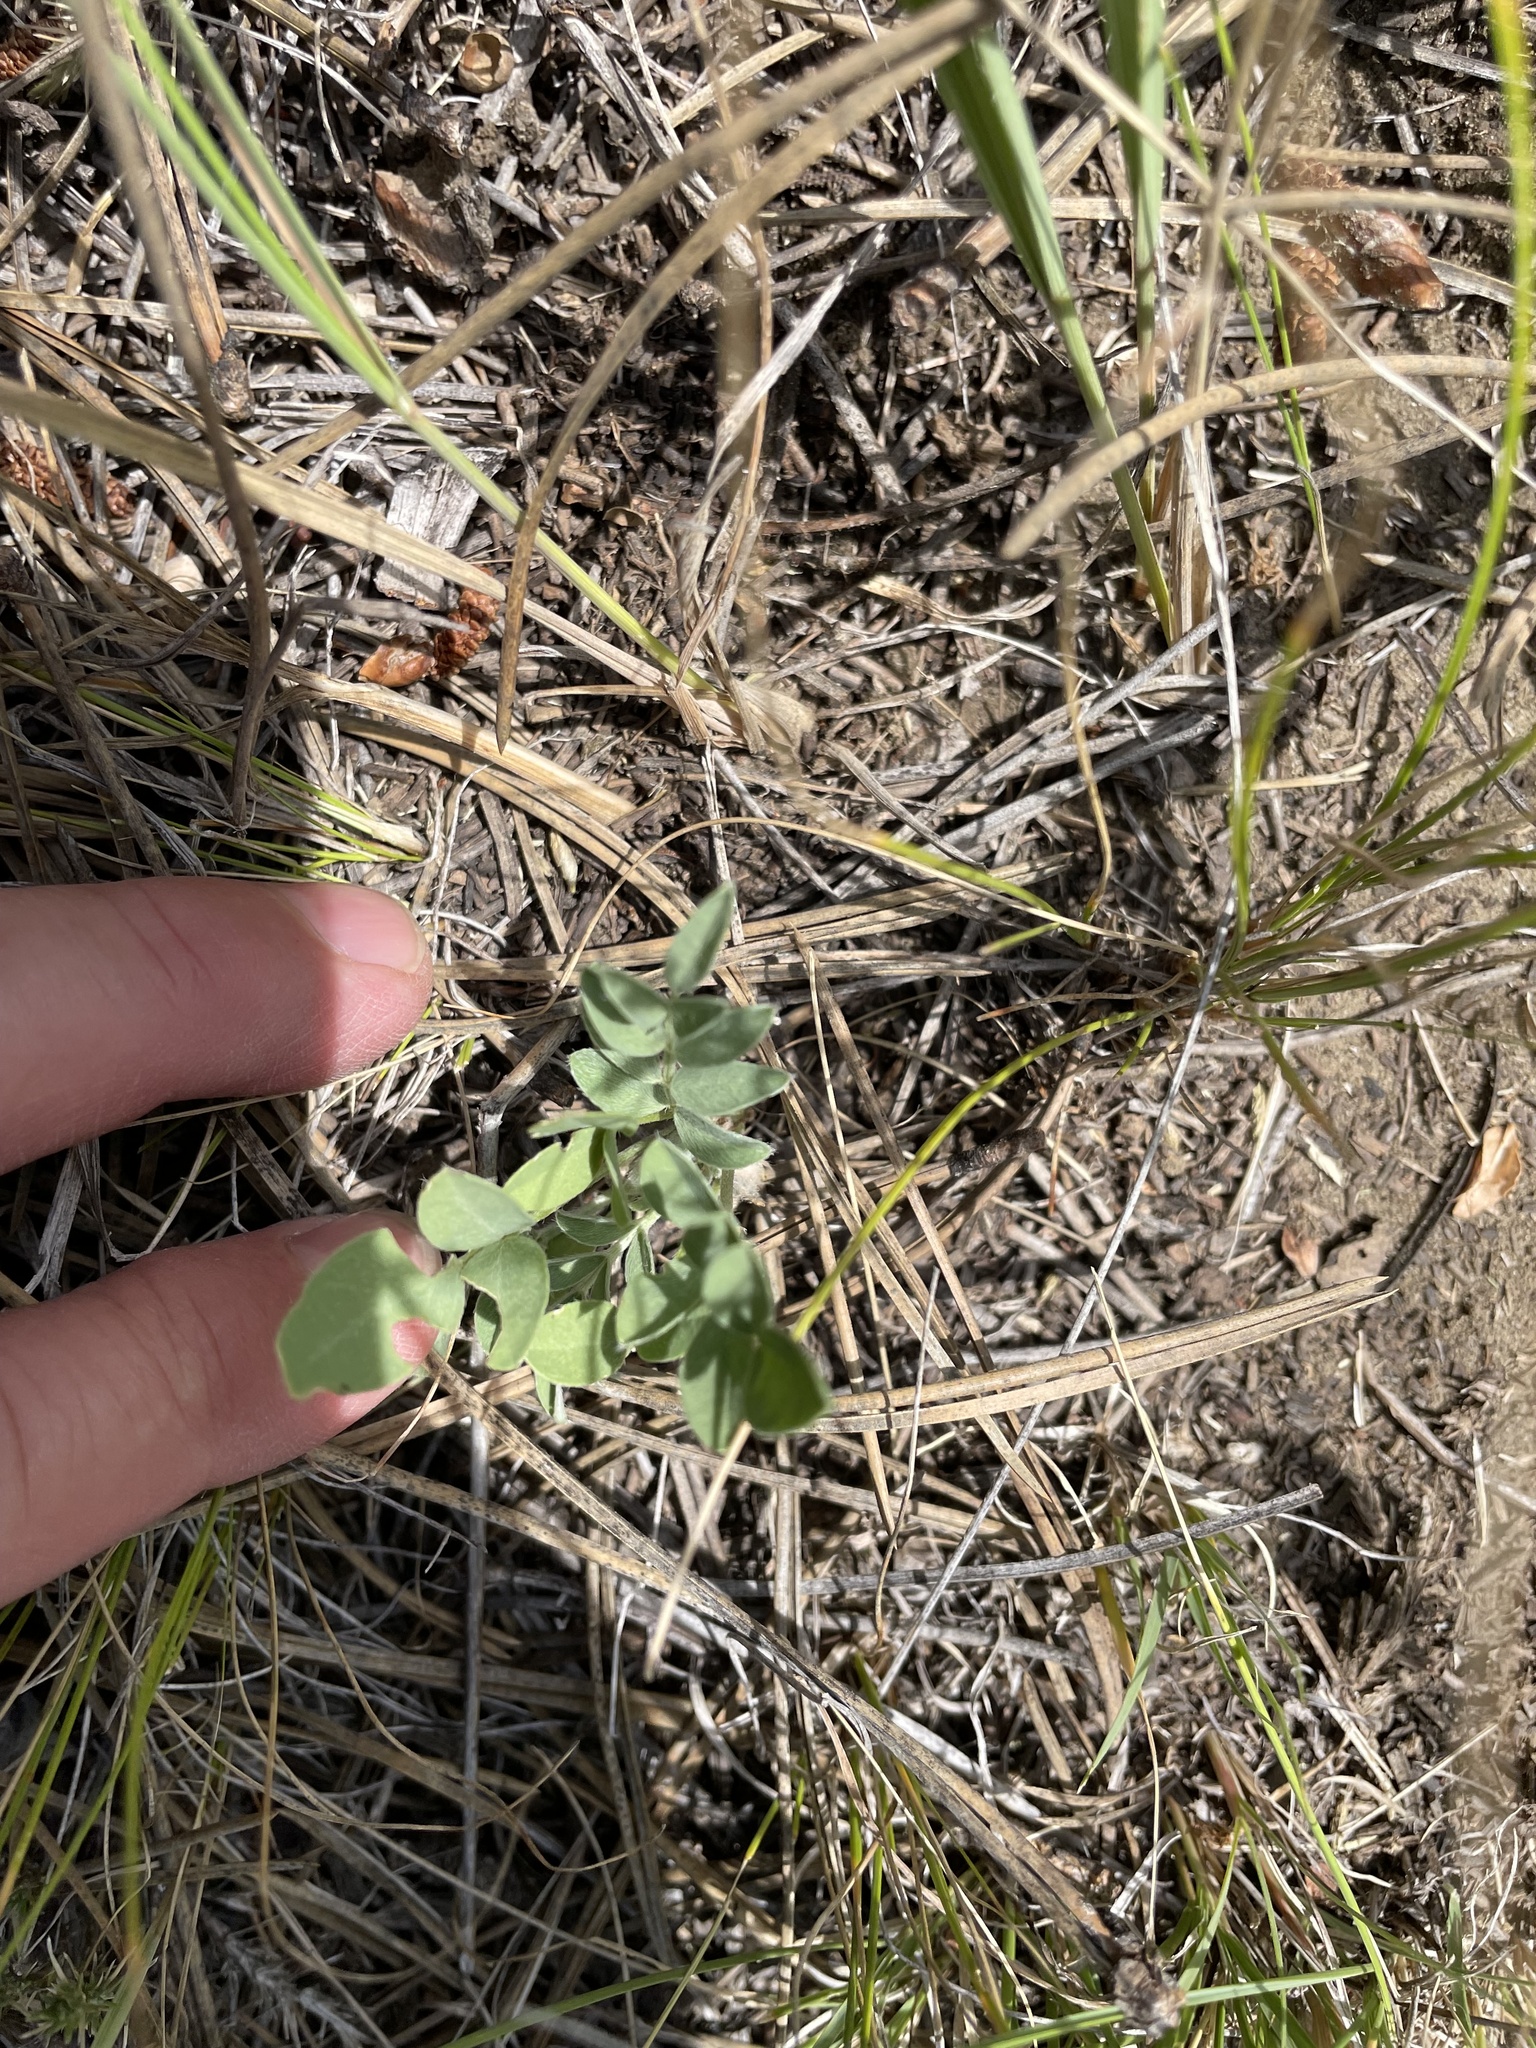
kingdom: Plantae
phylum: Tracheophyta
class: Magnoliopsida
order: Fabales
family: Fabaceae
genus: Astragalus
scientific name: Astragalus lotiflorus
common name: Lotus milk-vetch
